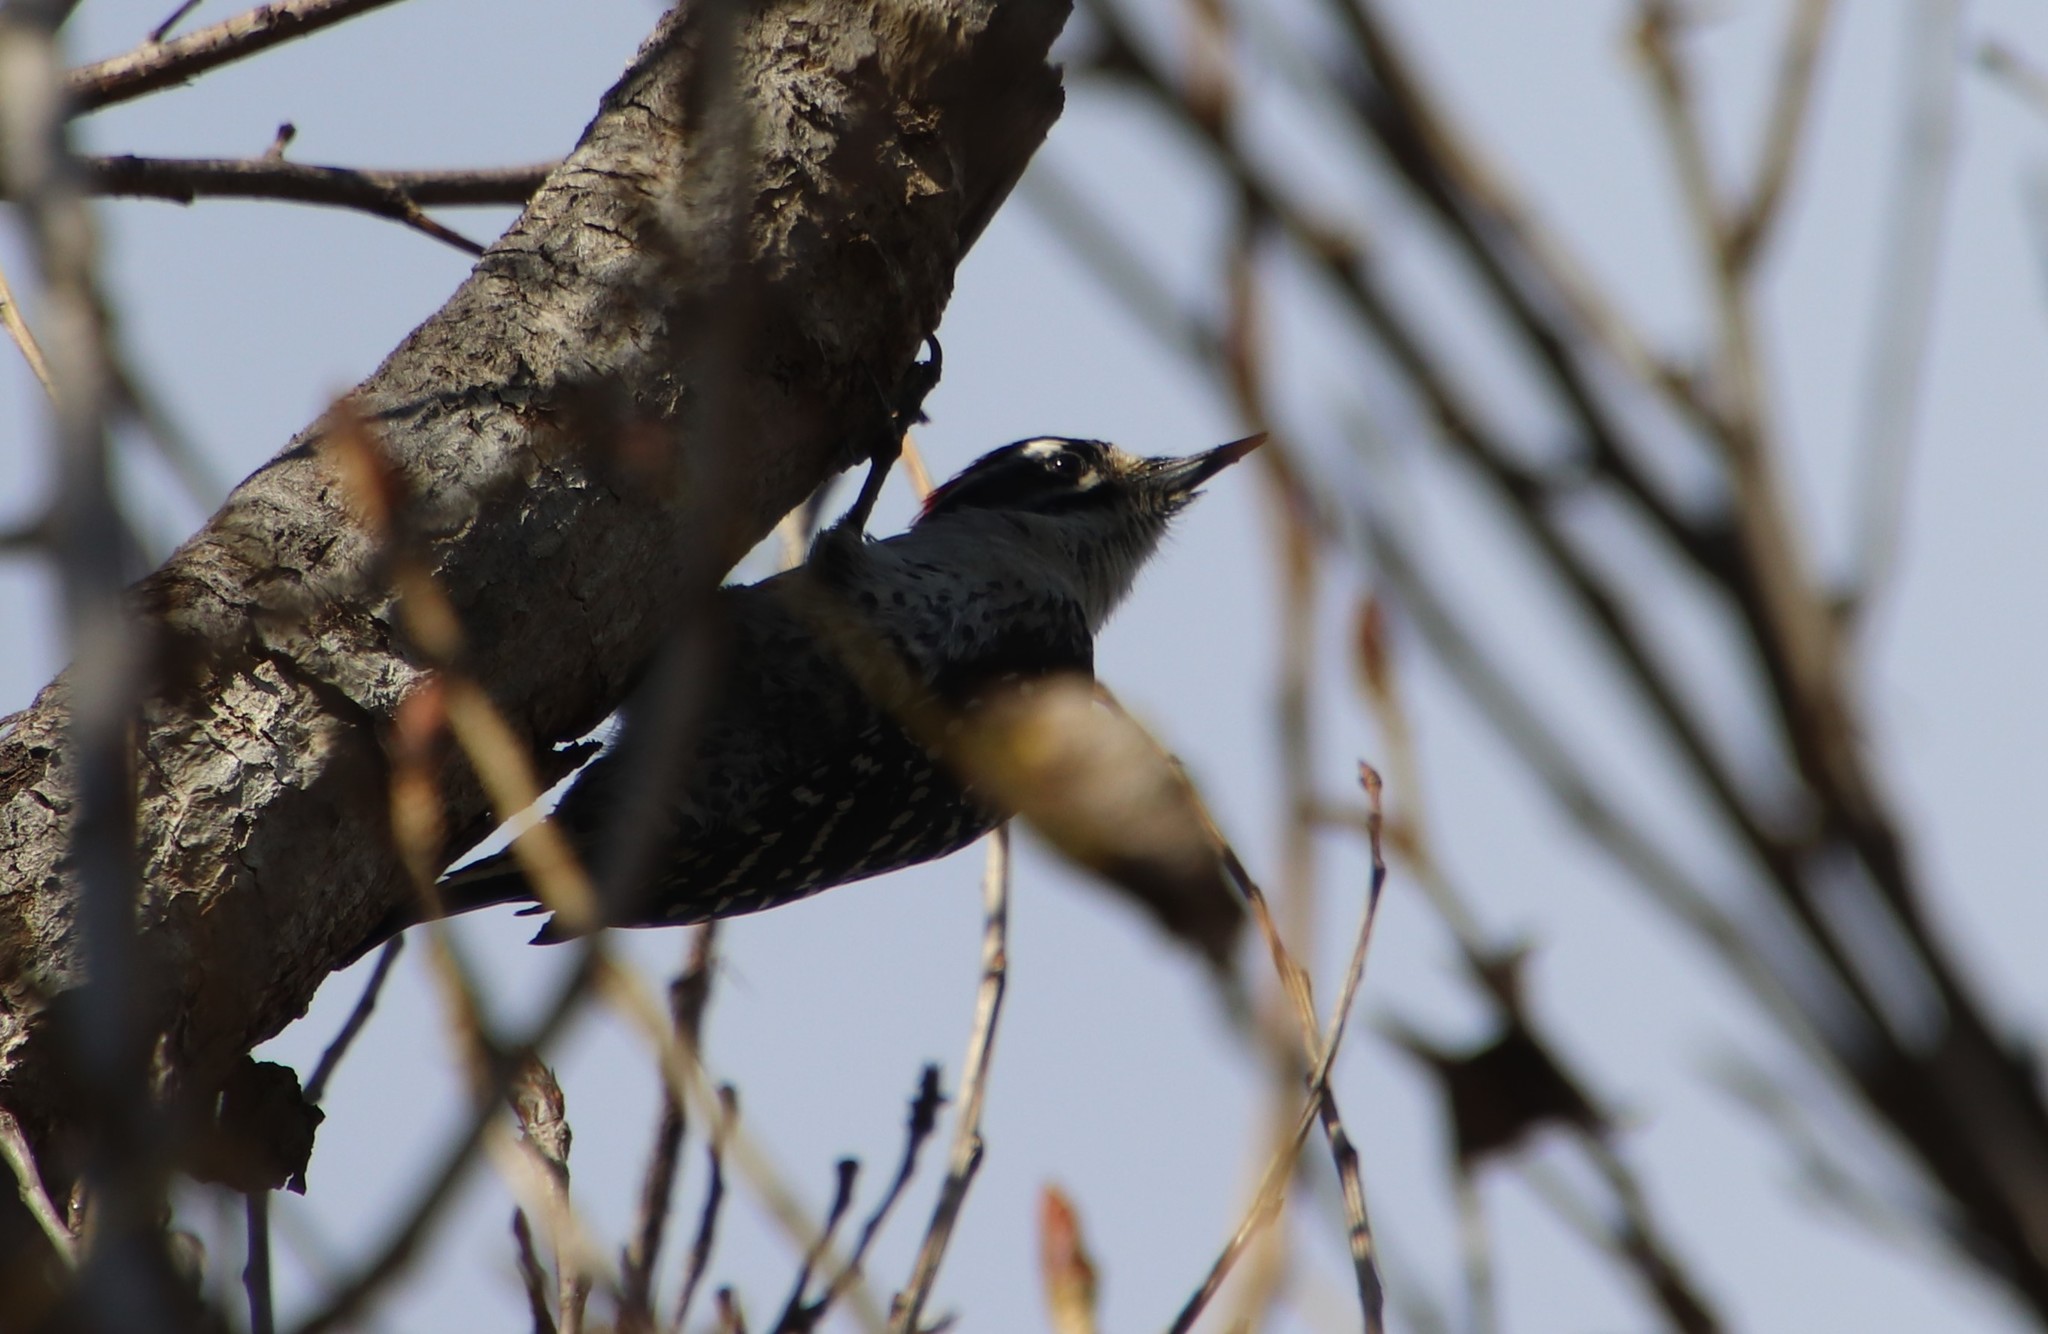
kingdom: Animalia
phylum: Chordata
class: Aves
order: Piciformes
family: Picidae
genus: Dryobates
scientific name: Dryobates nuttallii
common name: Nuttall's woodpecker
